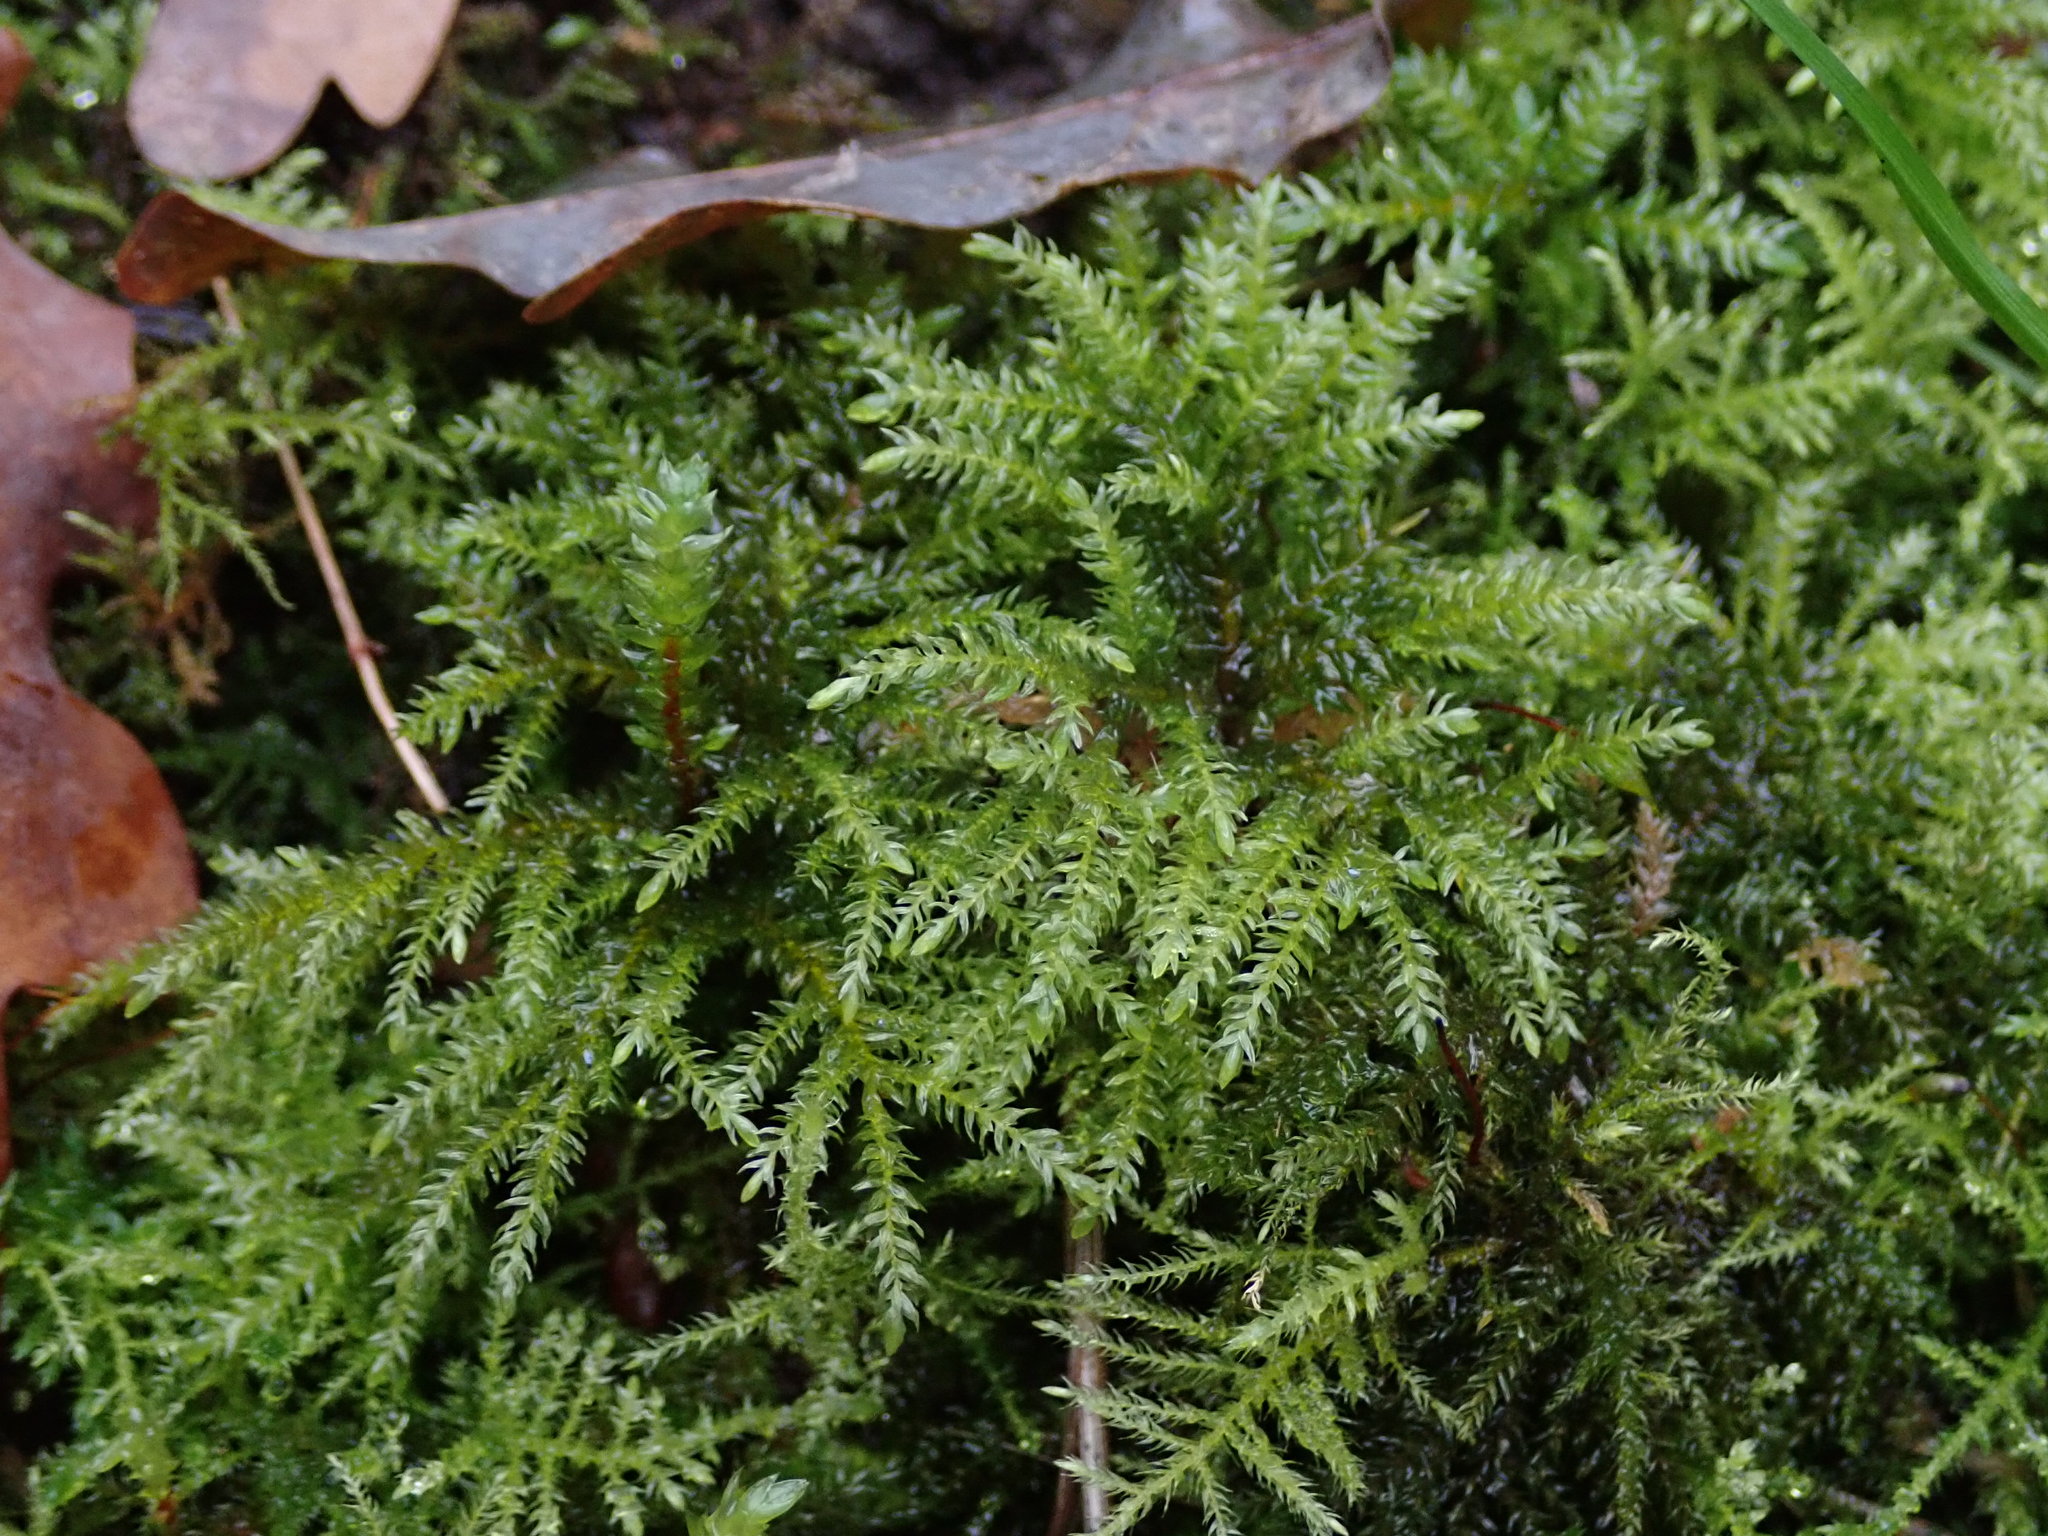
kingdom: Plantae
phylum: Bryophyta
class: Bryopsida
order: Hypnales
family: Neckeraceae
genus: Thamnobryum
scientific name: Thamnobryum alopecurum
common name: Fox-tail feather-moss
